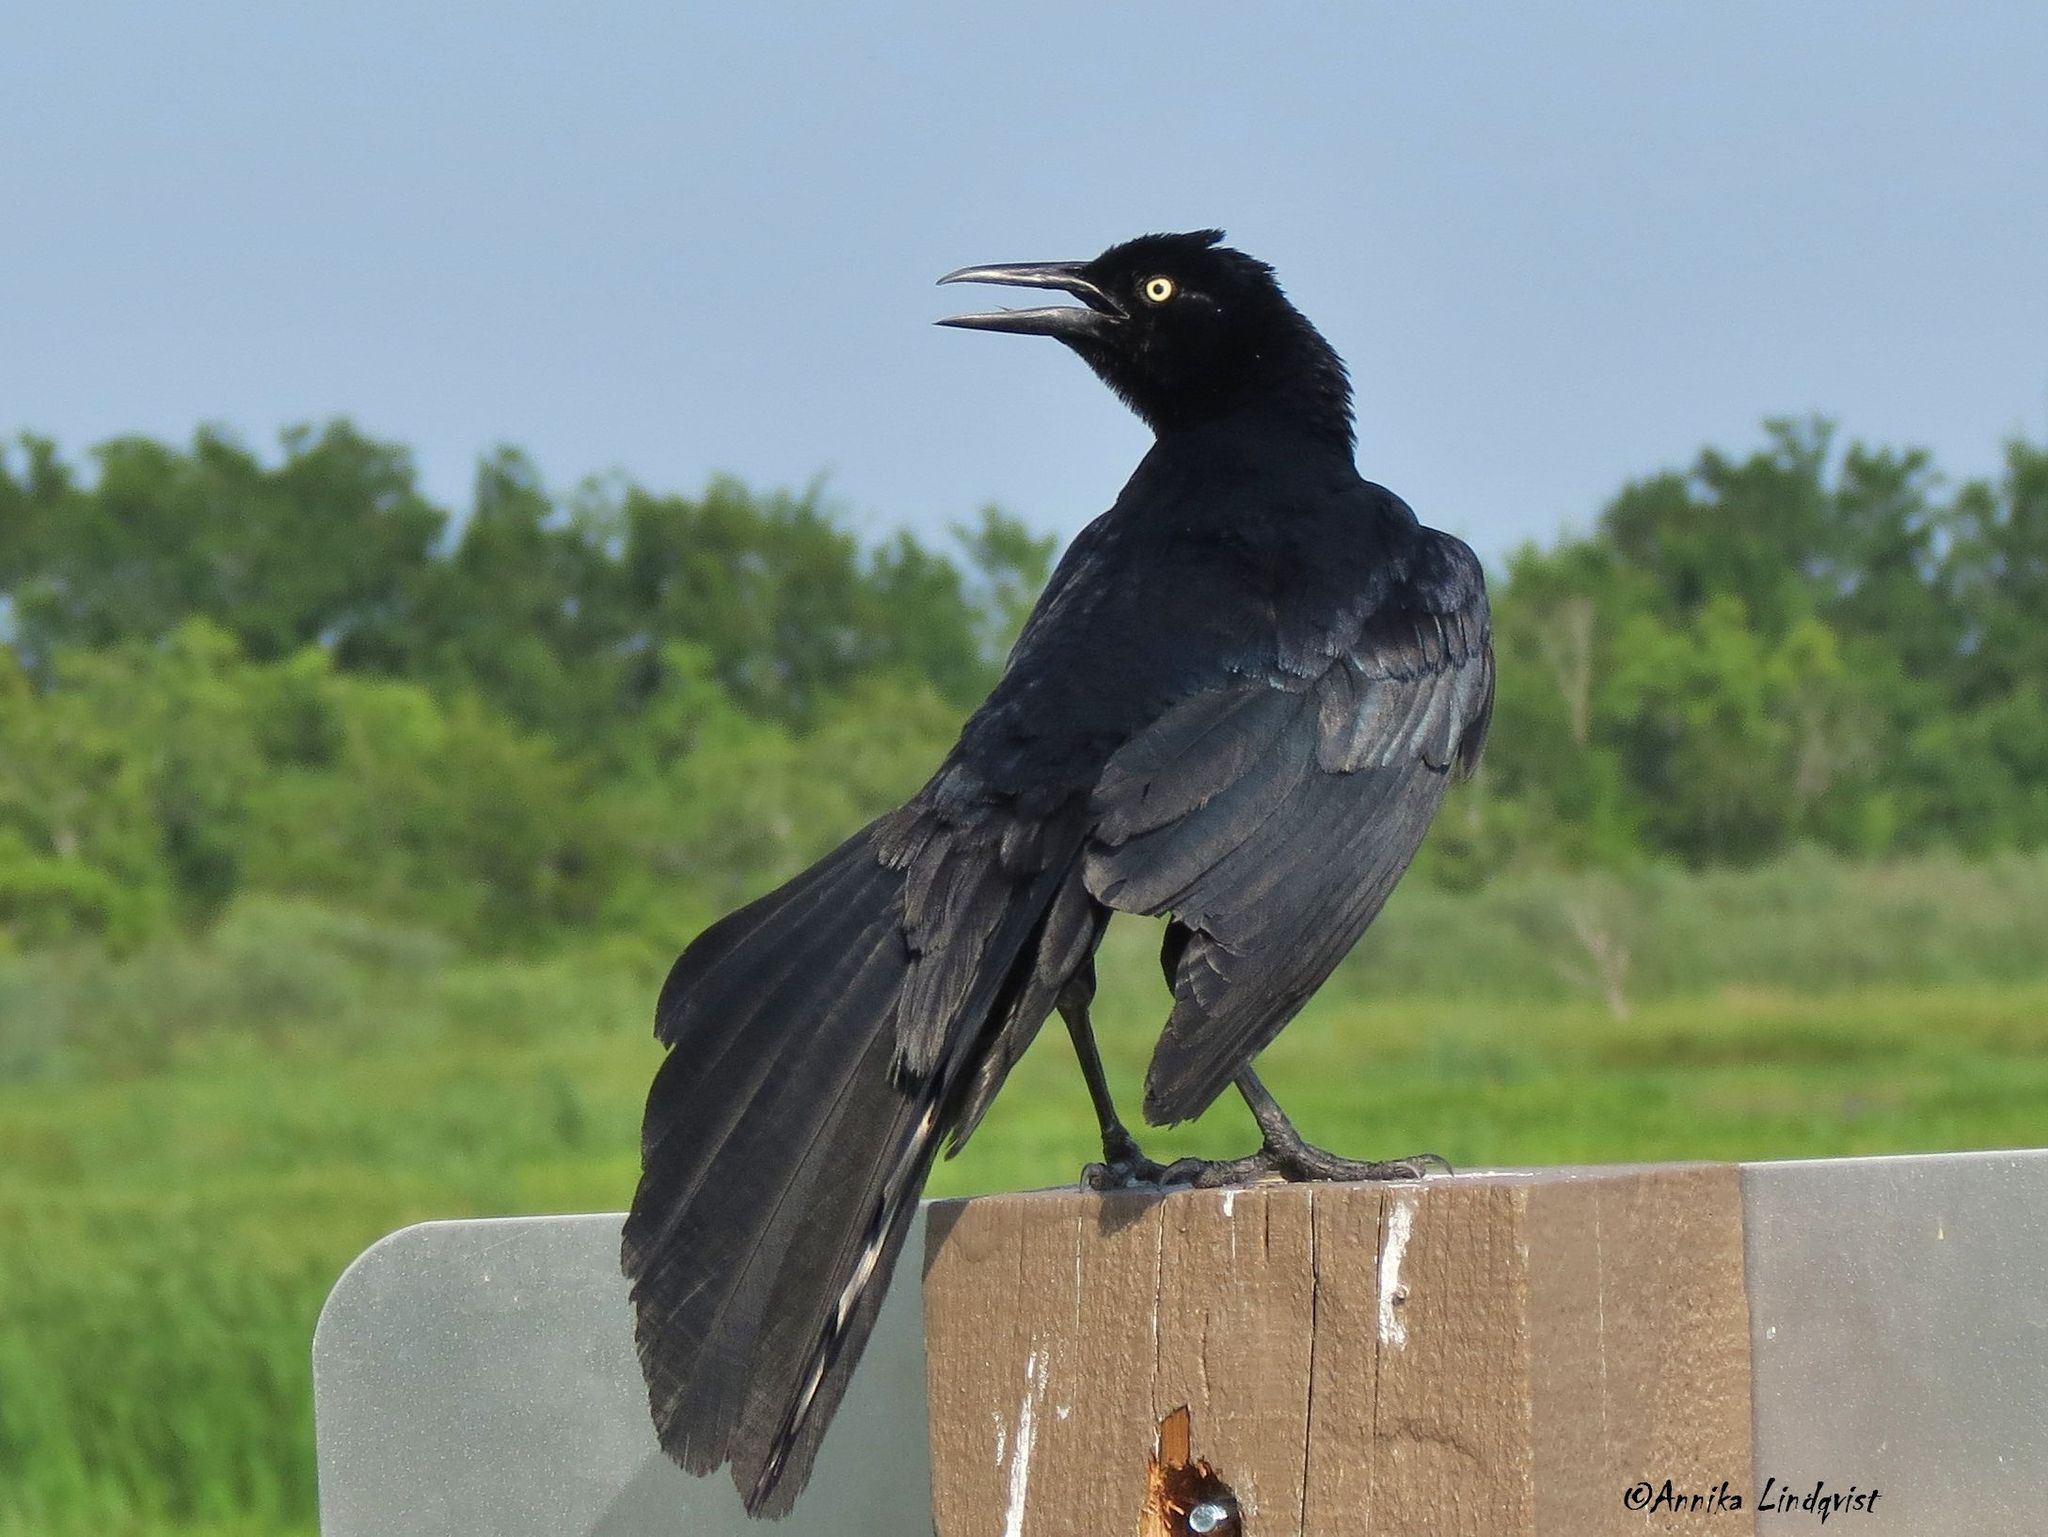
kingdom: Animalia
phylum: Chordata
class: Aves
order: Passeriformes
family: Icteridae
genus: Quiscalus
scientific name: Quiscalus mexicanus
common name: Great-tailed grackle
